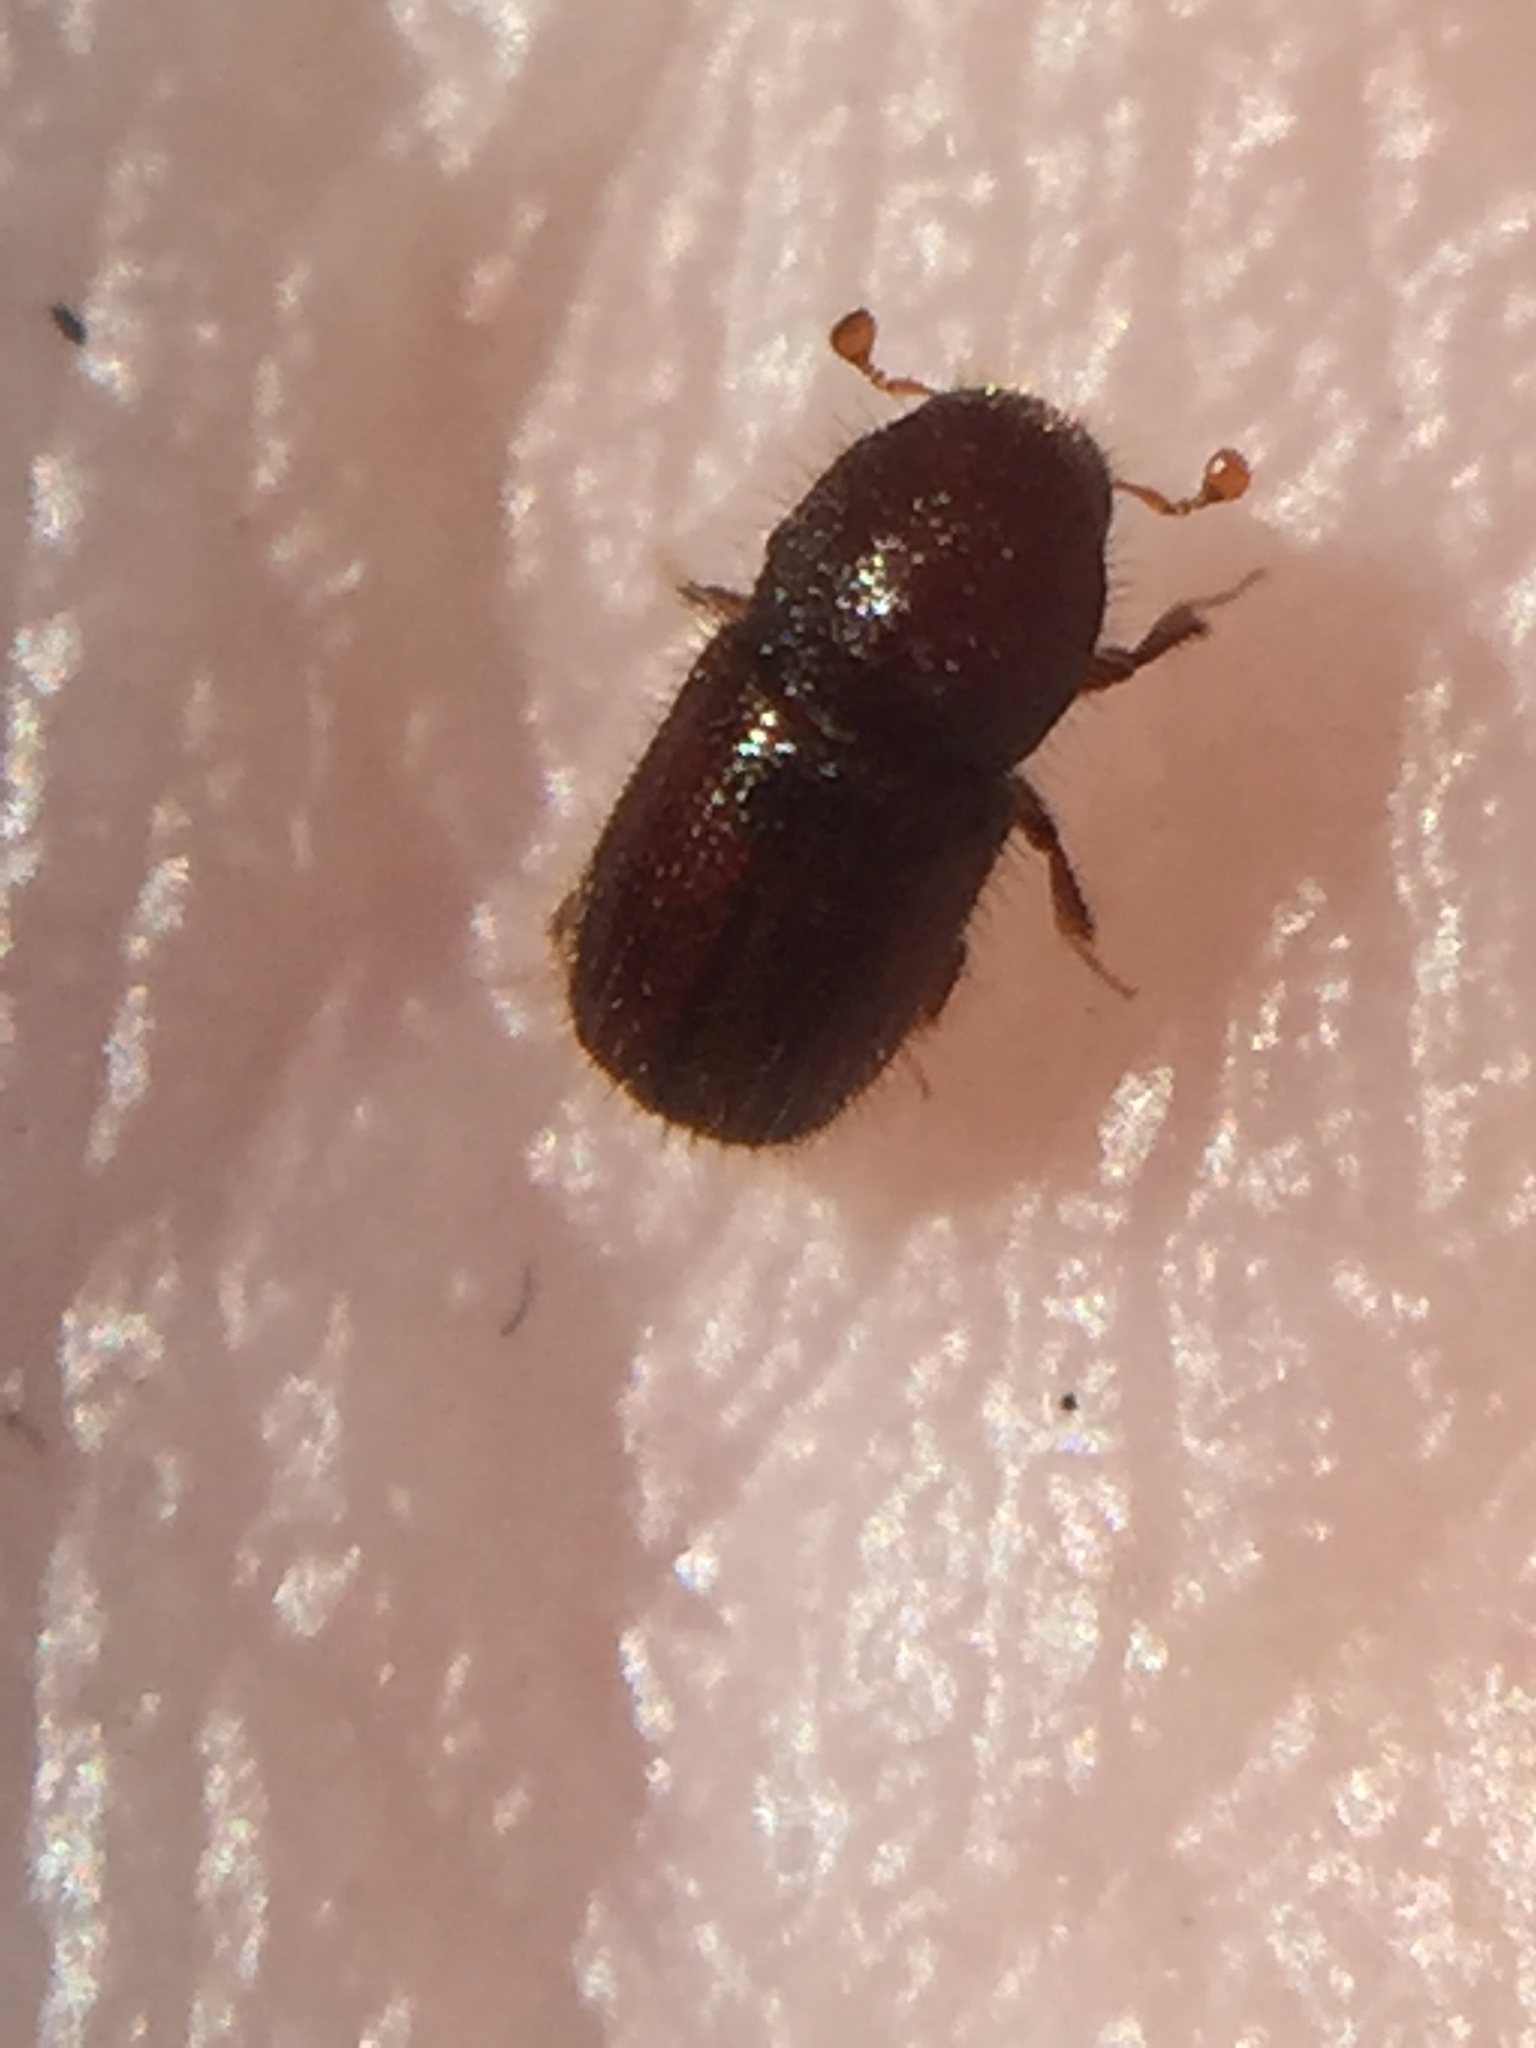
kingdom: Animalia
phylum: Arthropoda
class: Insecta
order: Coleoptera
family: Curculionidae
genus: Coccotrypes
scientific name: Coccotrypes dactyliperda
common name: Bark beetle
